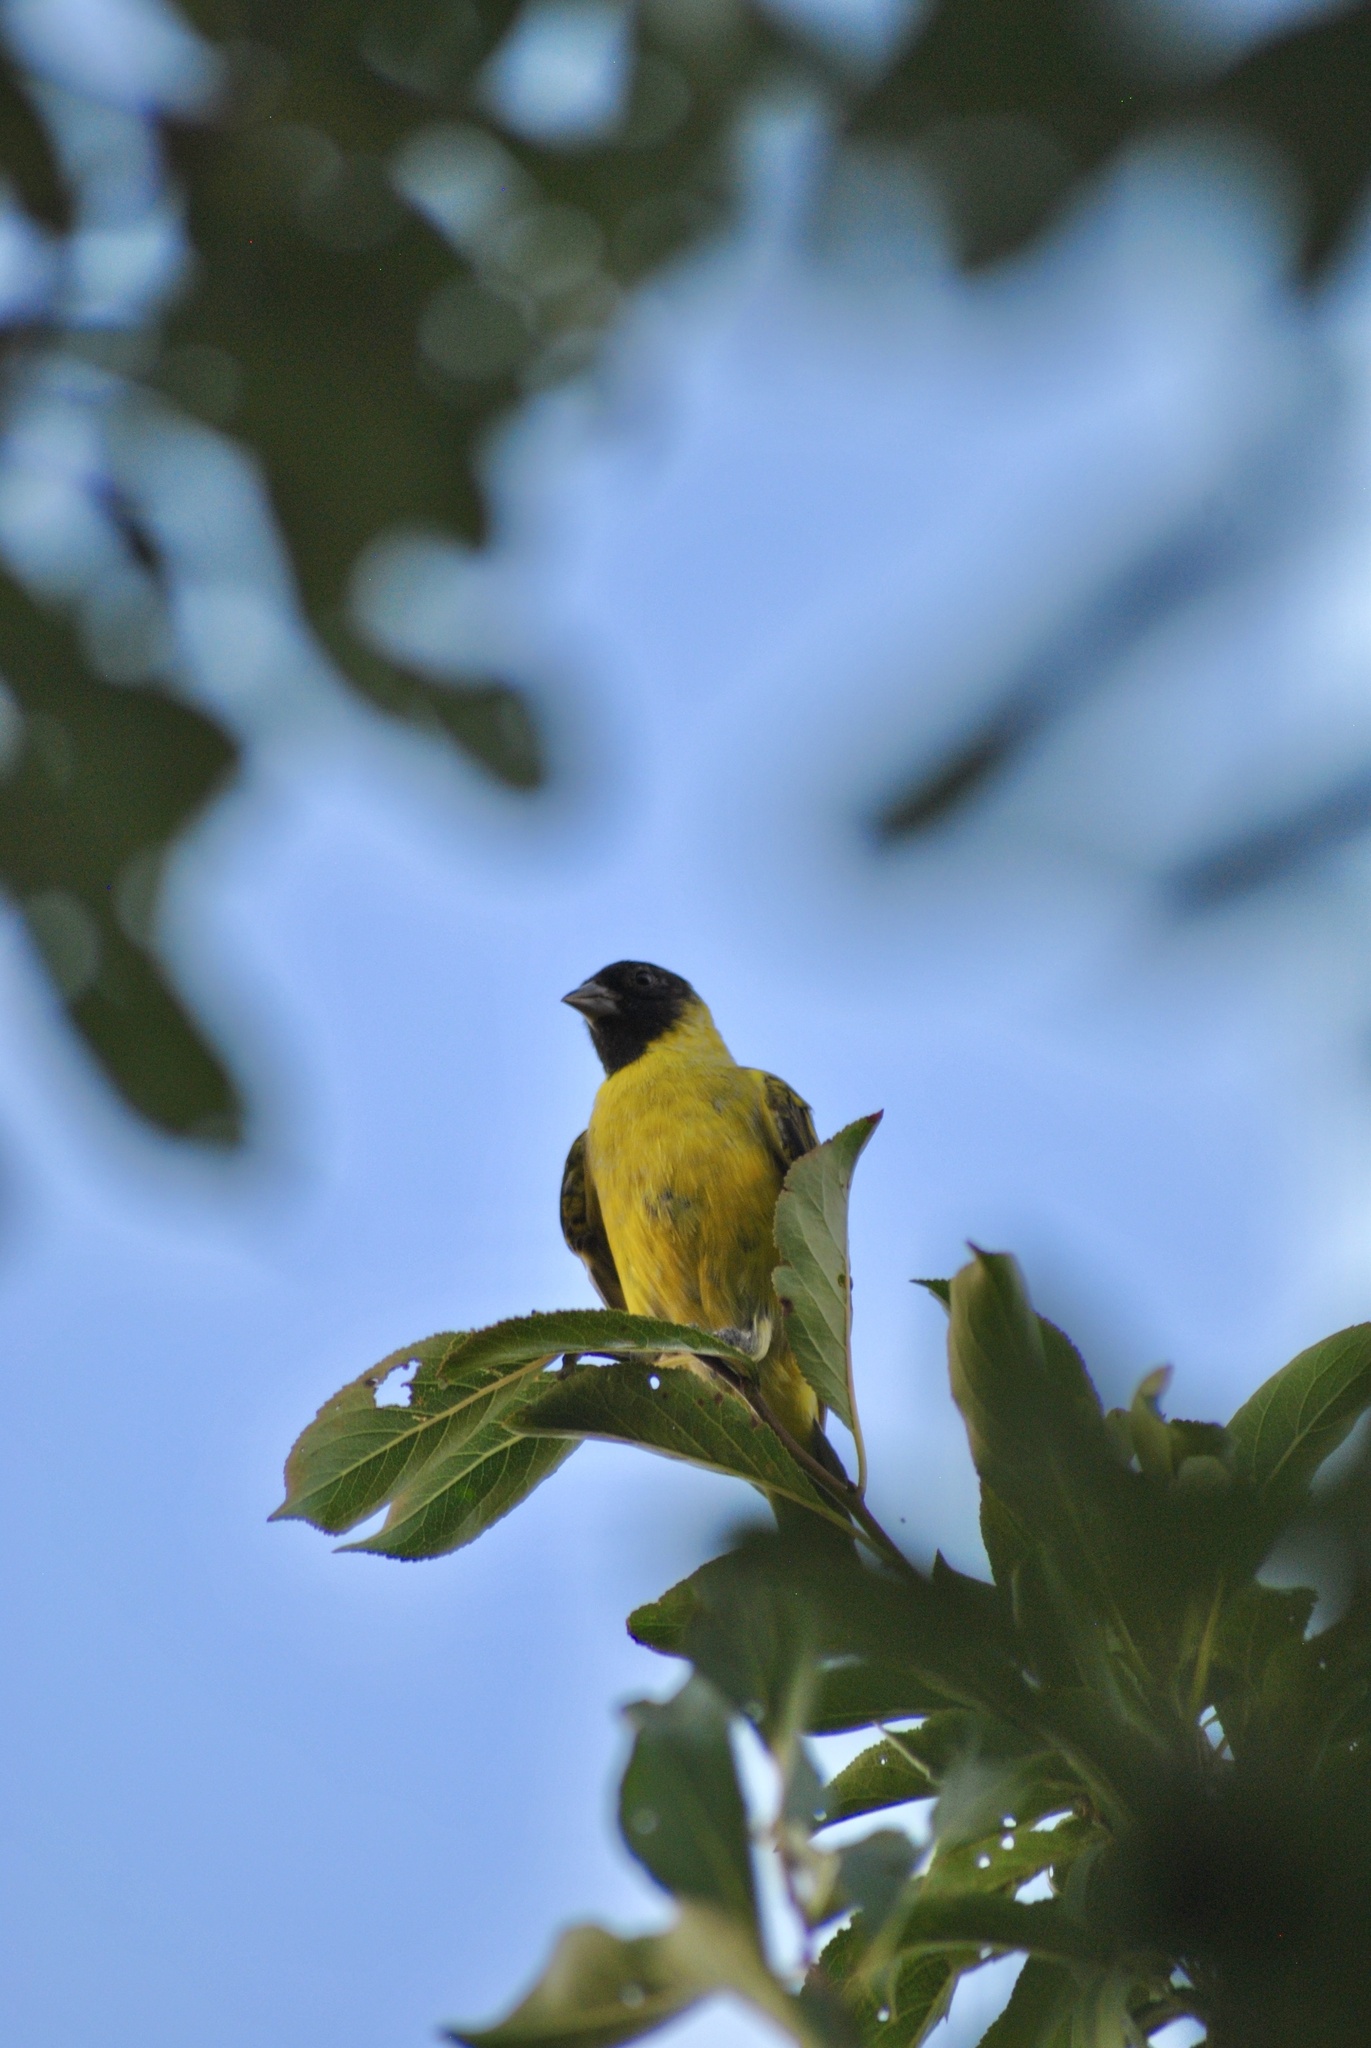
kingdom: Animalia
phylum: Chordata
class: Aves
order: Passeriformes
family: Fringillidae
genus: Spinus
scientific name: Spinus magellanicus
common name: Hooded siskin
